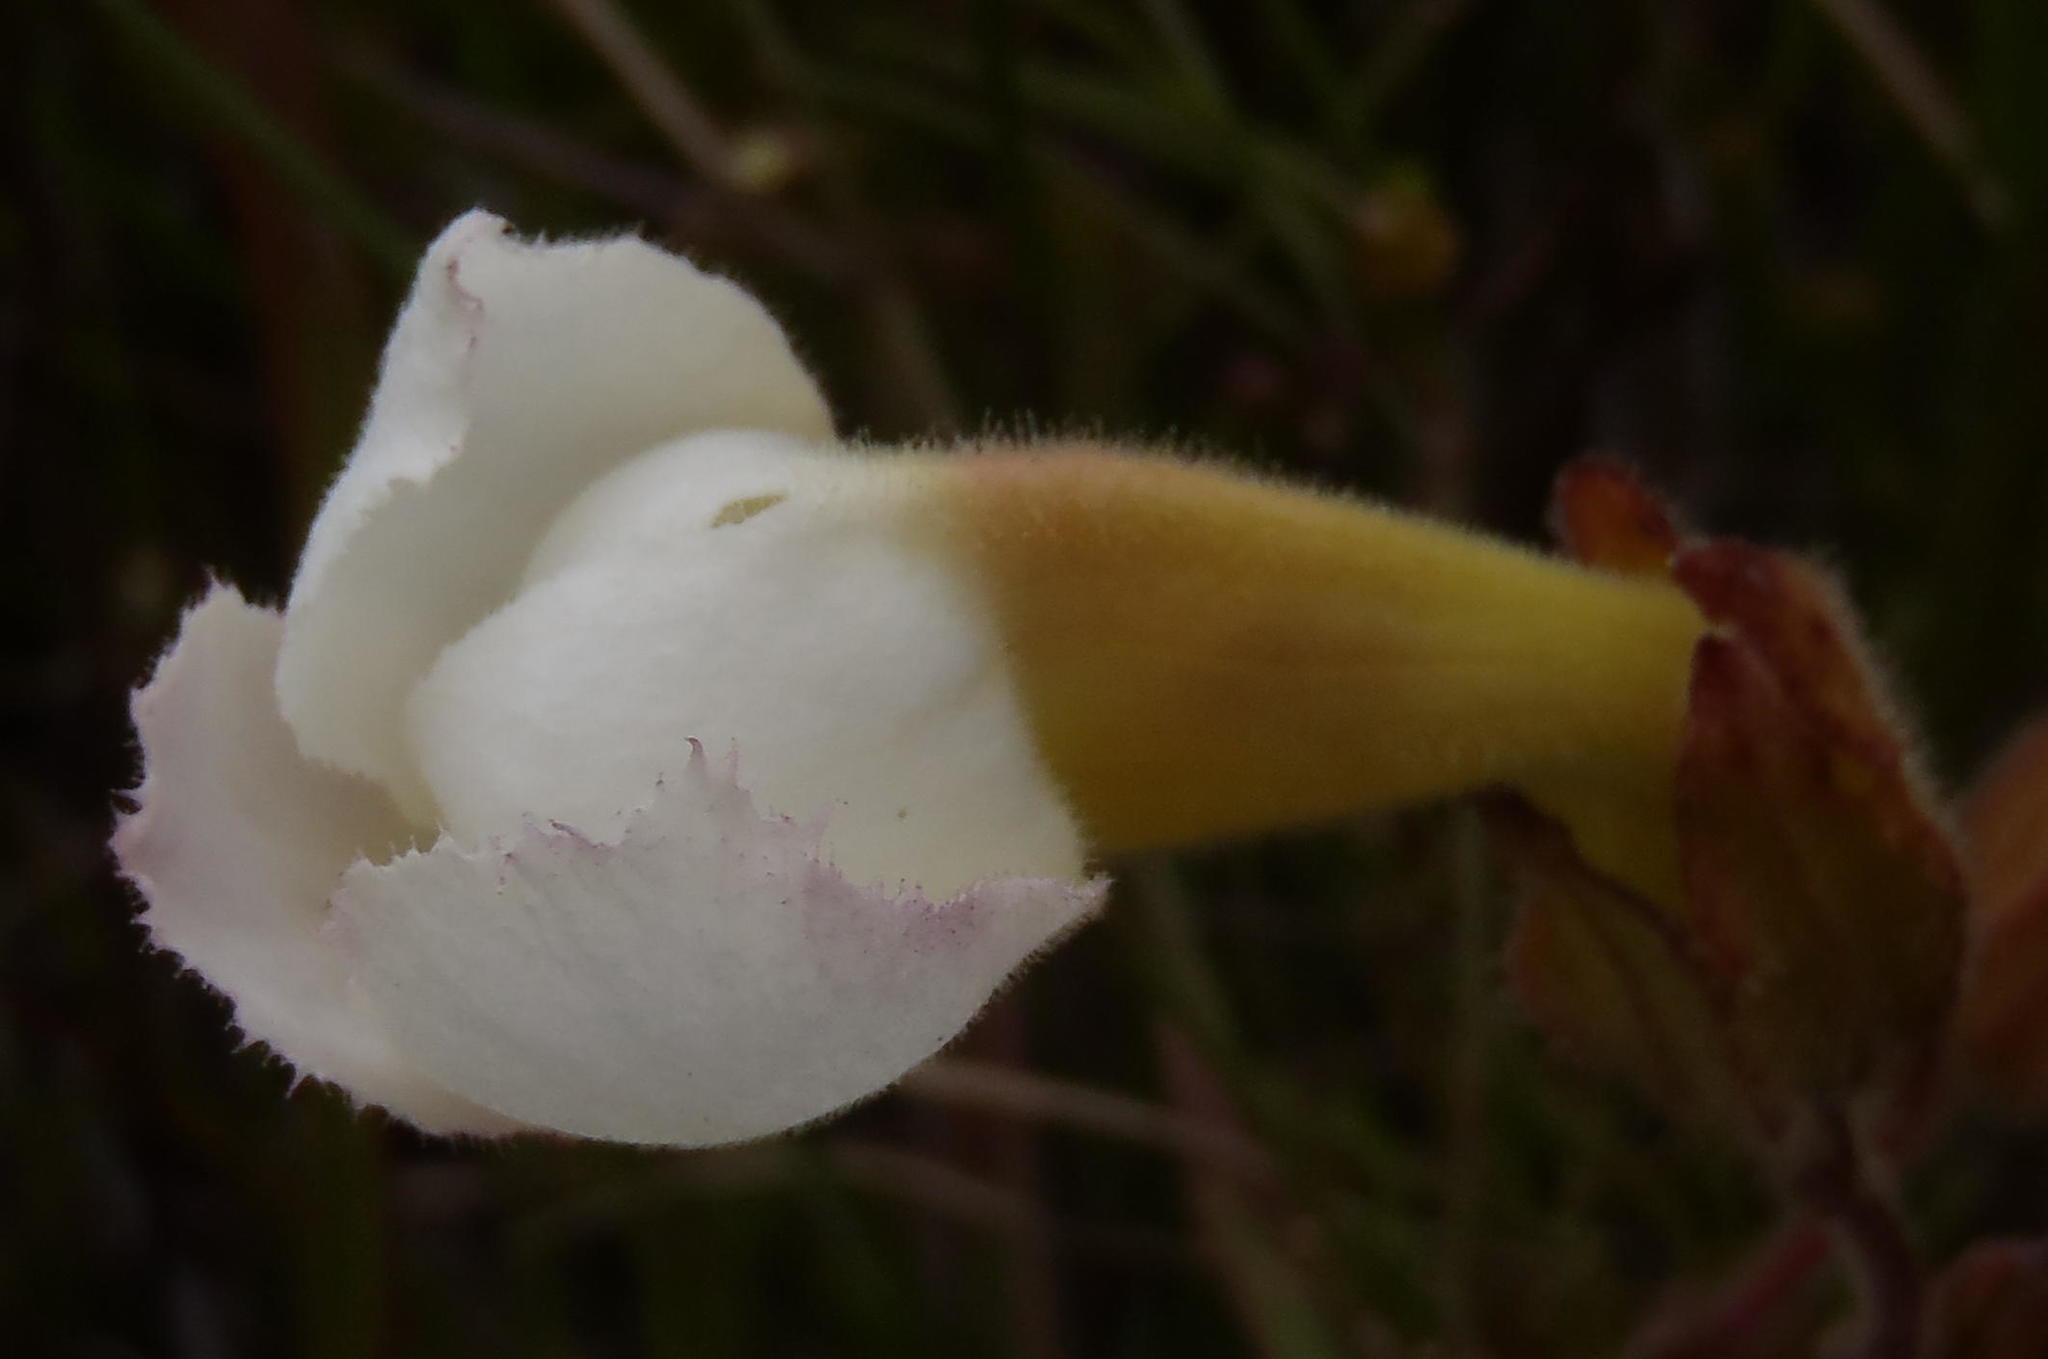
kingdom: Plantae
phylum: Tracheophyta
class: Magnoliopsida
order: Lamiales
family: Orobanchaceae
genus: Harveya
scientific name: Harveya capensis
